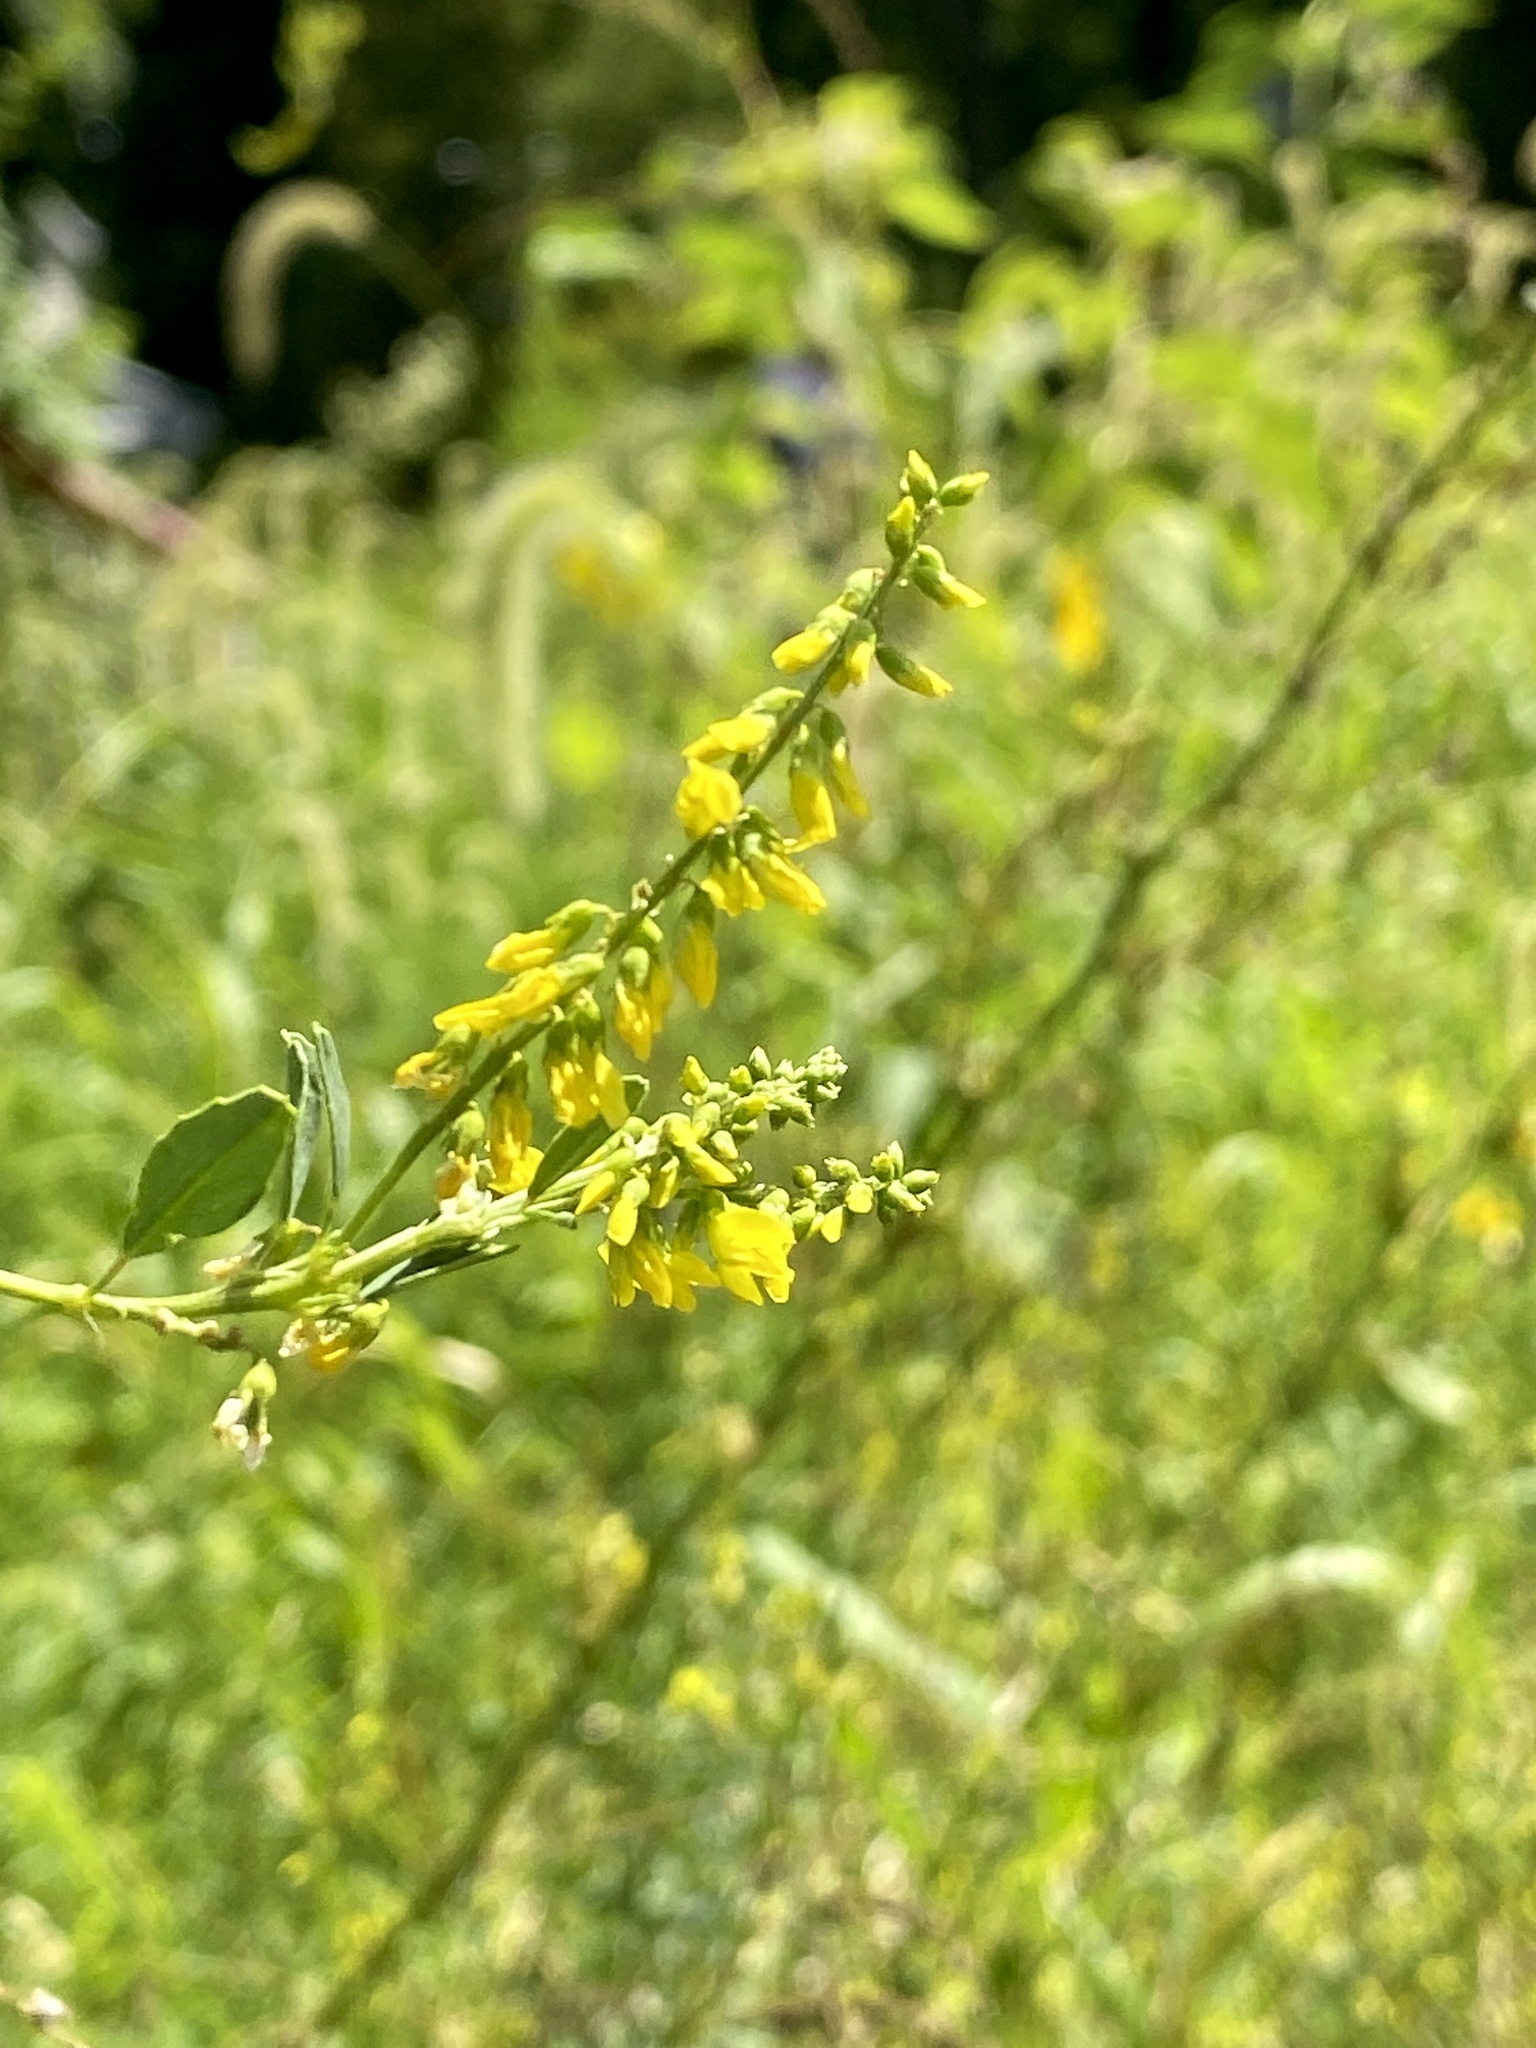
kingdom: Plantae
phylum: Tracheophyta
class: Magnoliopsida
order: Fabales
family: Fabaceae
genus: Melilotus
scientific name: Melilotus officinalis
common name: Sweetclover
